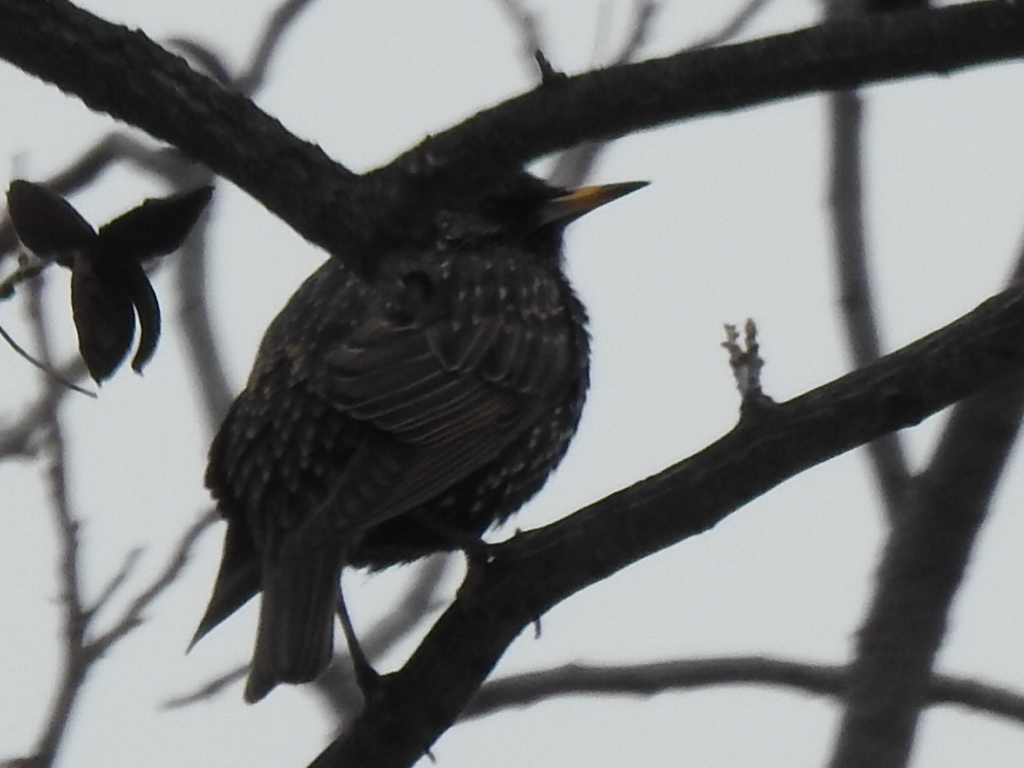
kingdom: Animalia
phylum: Chordata
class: Aves
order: Passeriformes
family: Sturnidae
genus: Sturnus
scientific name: Sturnus vulgaris
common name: Common starling
